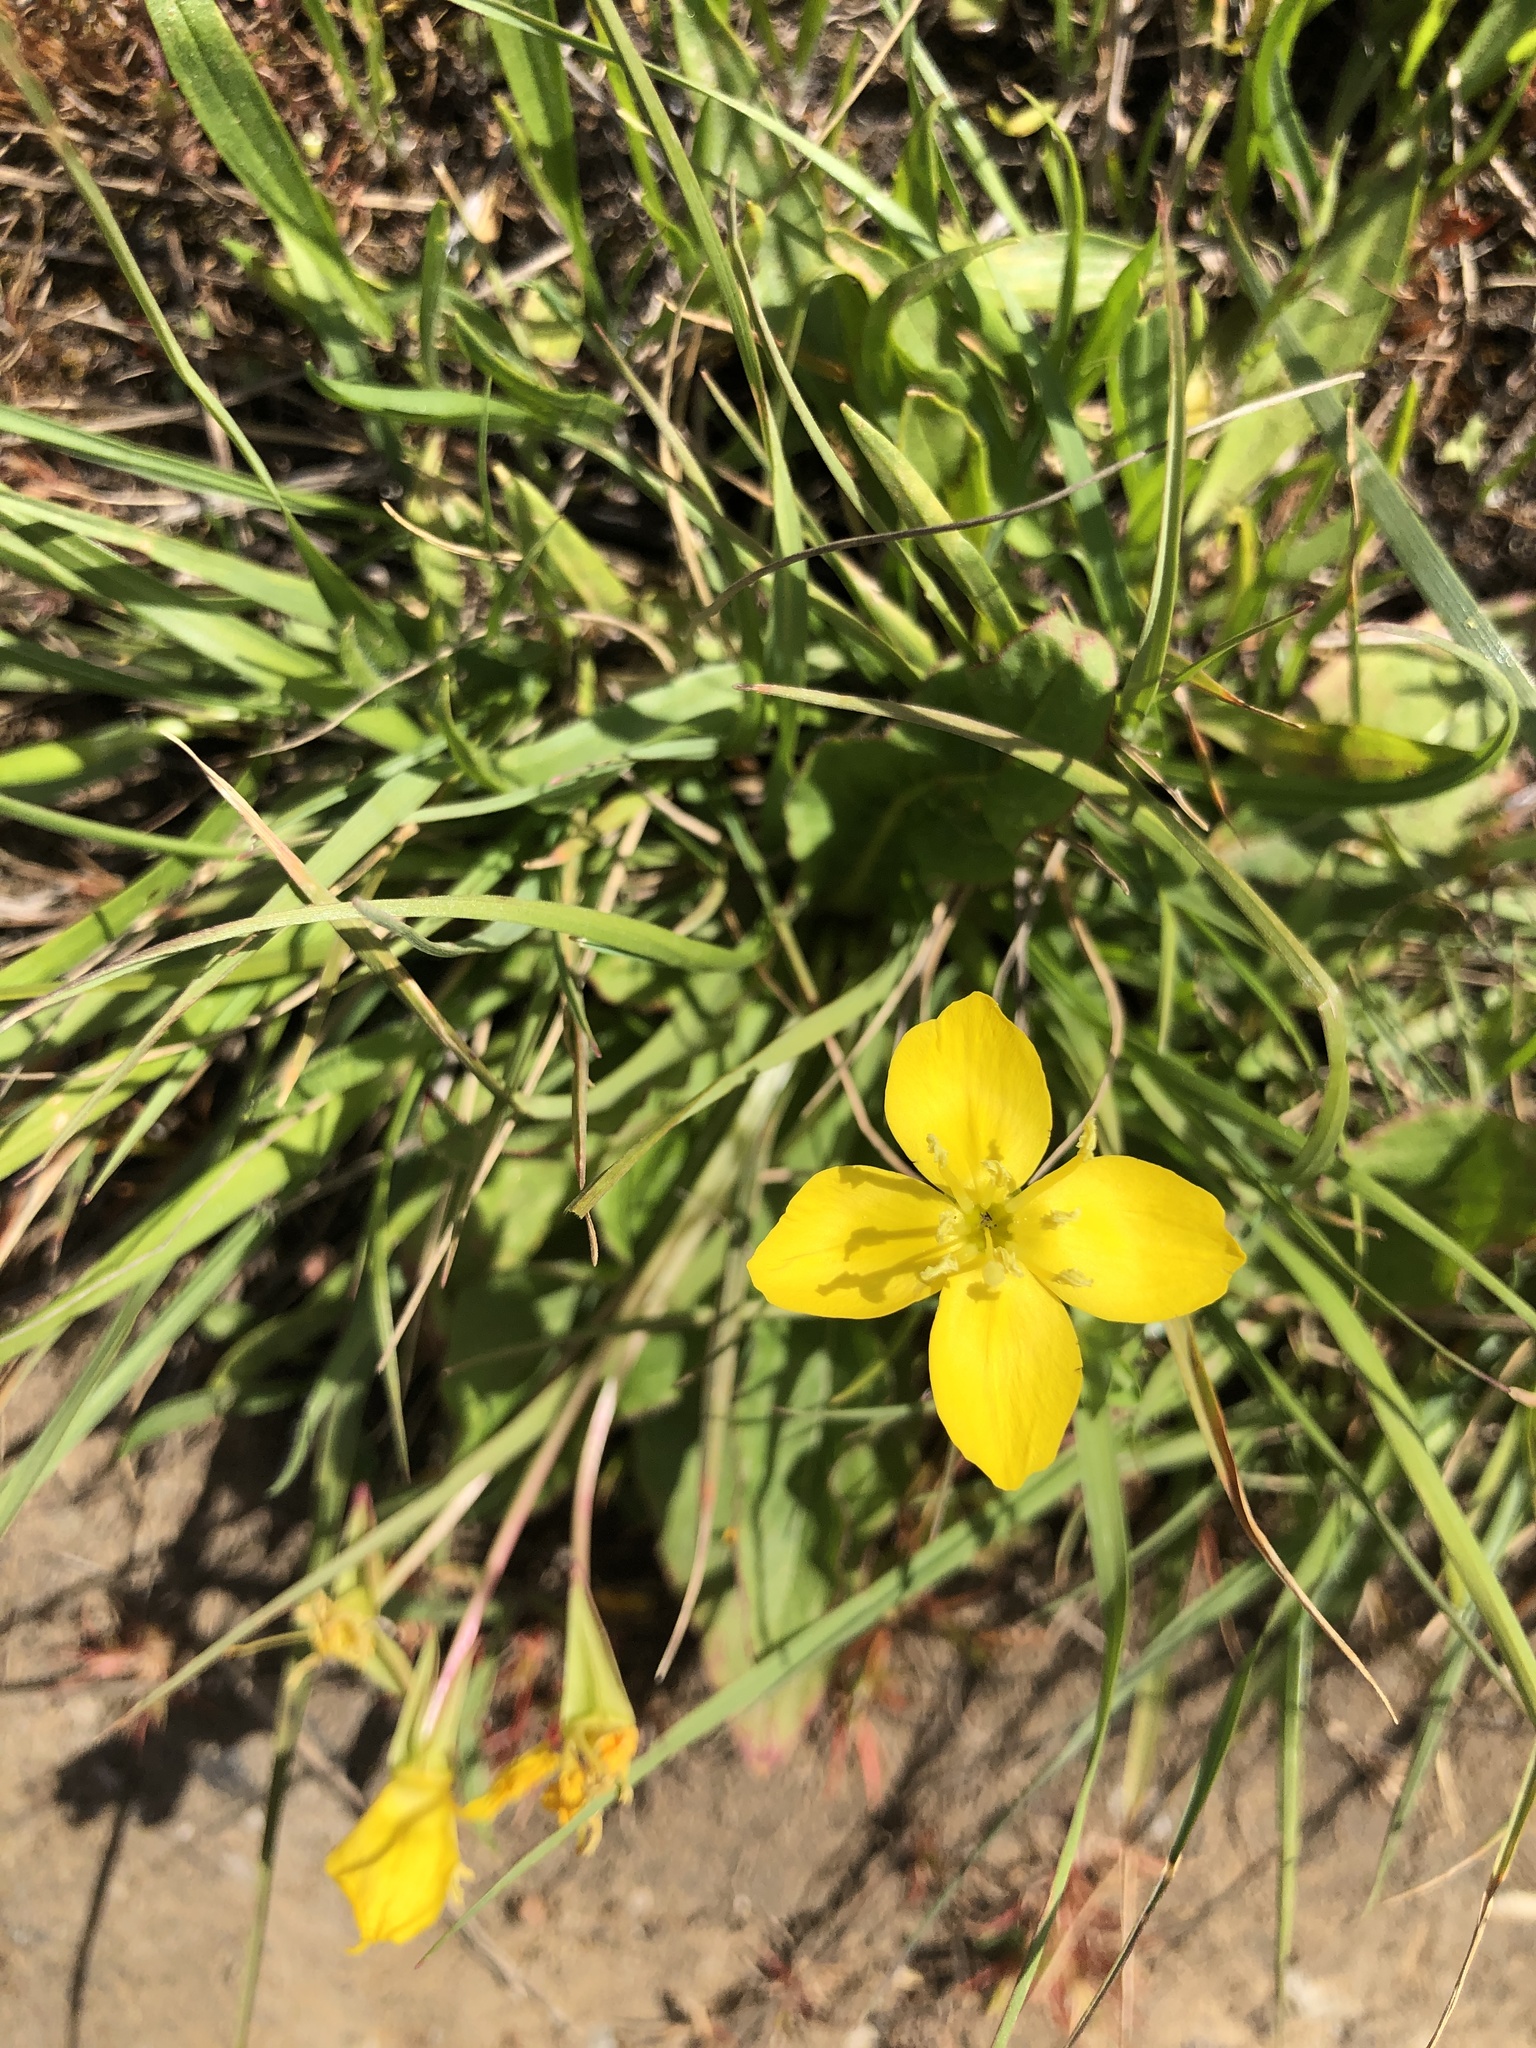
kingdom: Plantae
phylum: Tracheophyta
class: Magnoliopsida
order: Myrtales
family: Onagraceae
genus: Taraxia
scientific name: Taraxia ovata
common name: Goldeneggs
